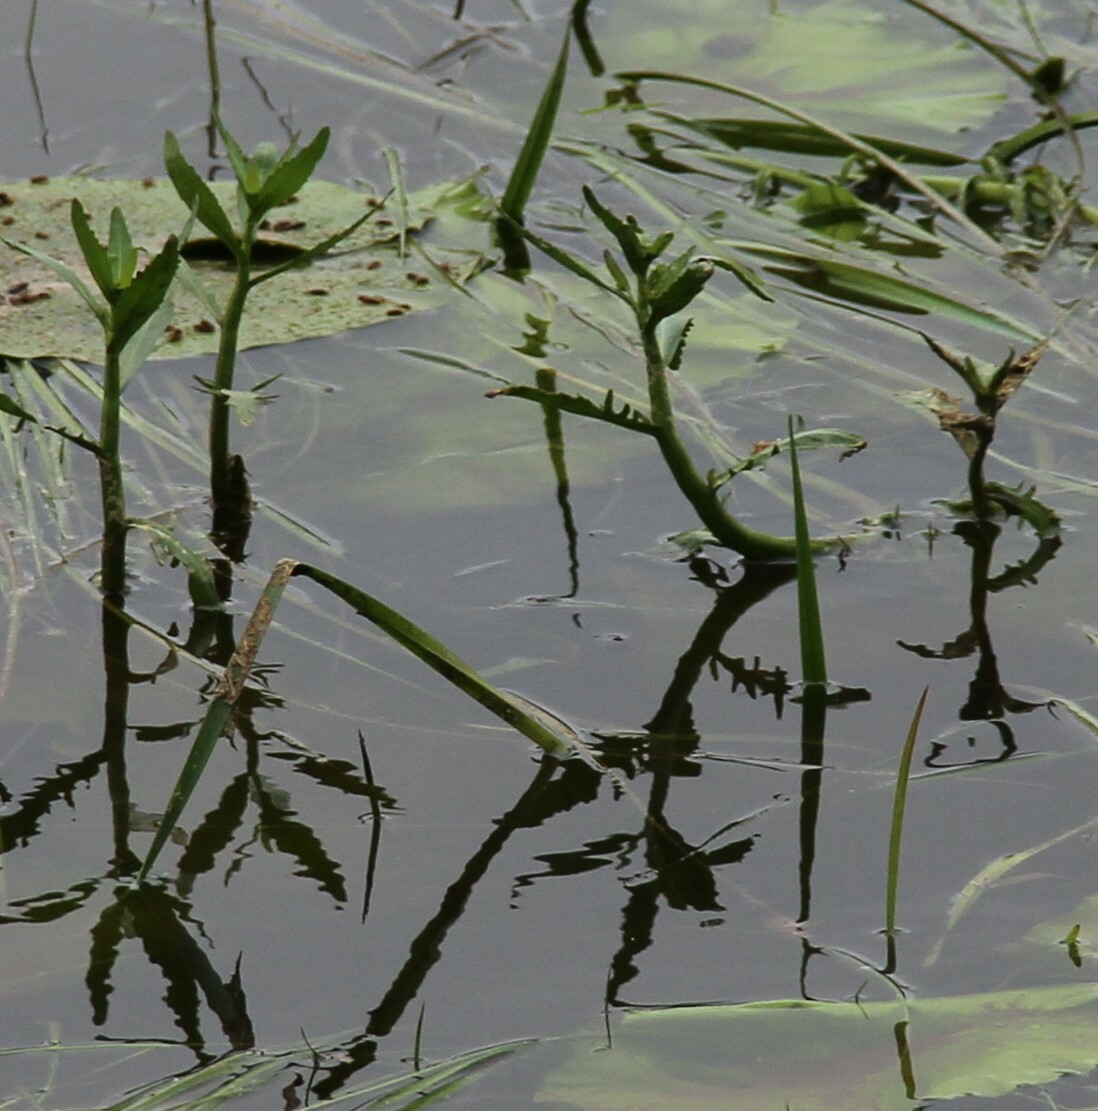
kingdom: Plantae
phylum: Tracheophyta
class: Magnoliopsida
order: Brassicales
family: Brassicaceae
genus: Rorippa
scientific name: Rorippa amphibia
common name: Great yellow-cress
